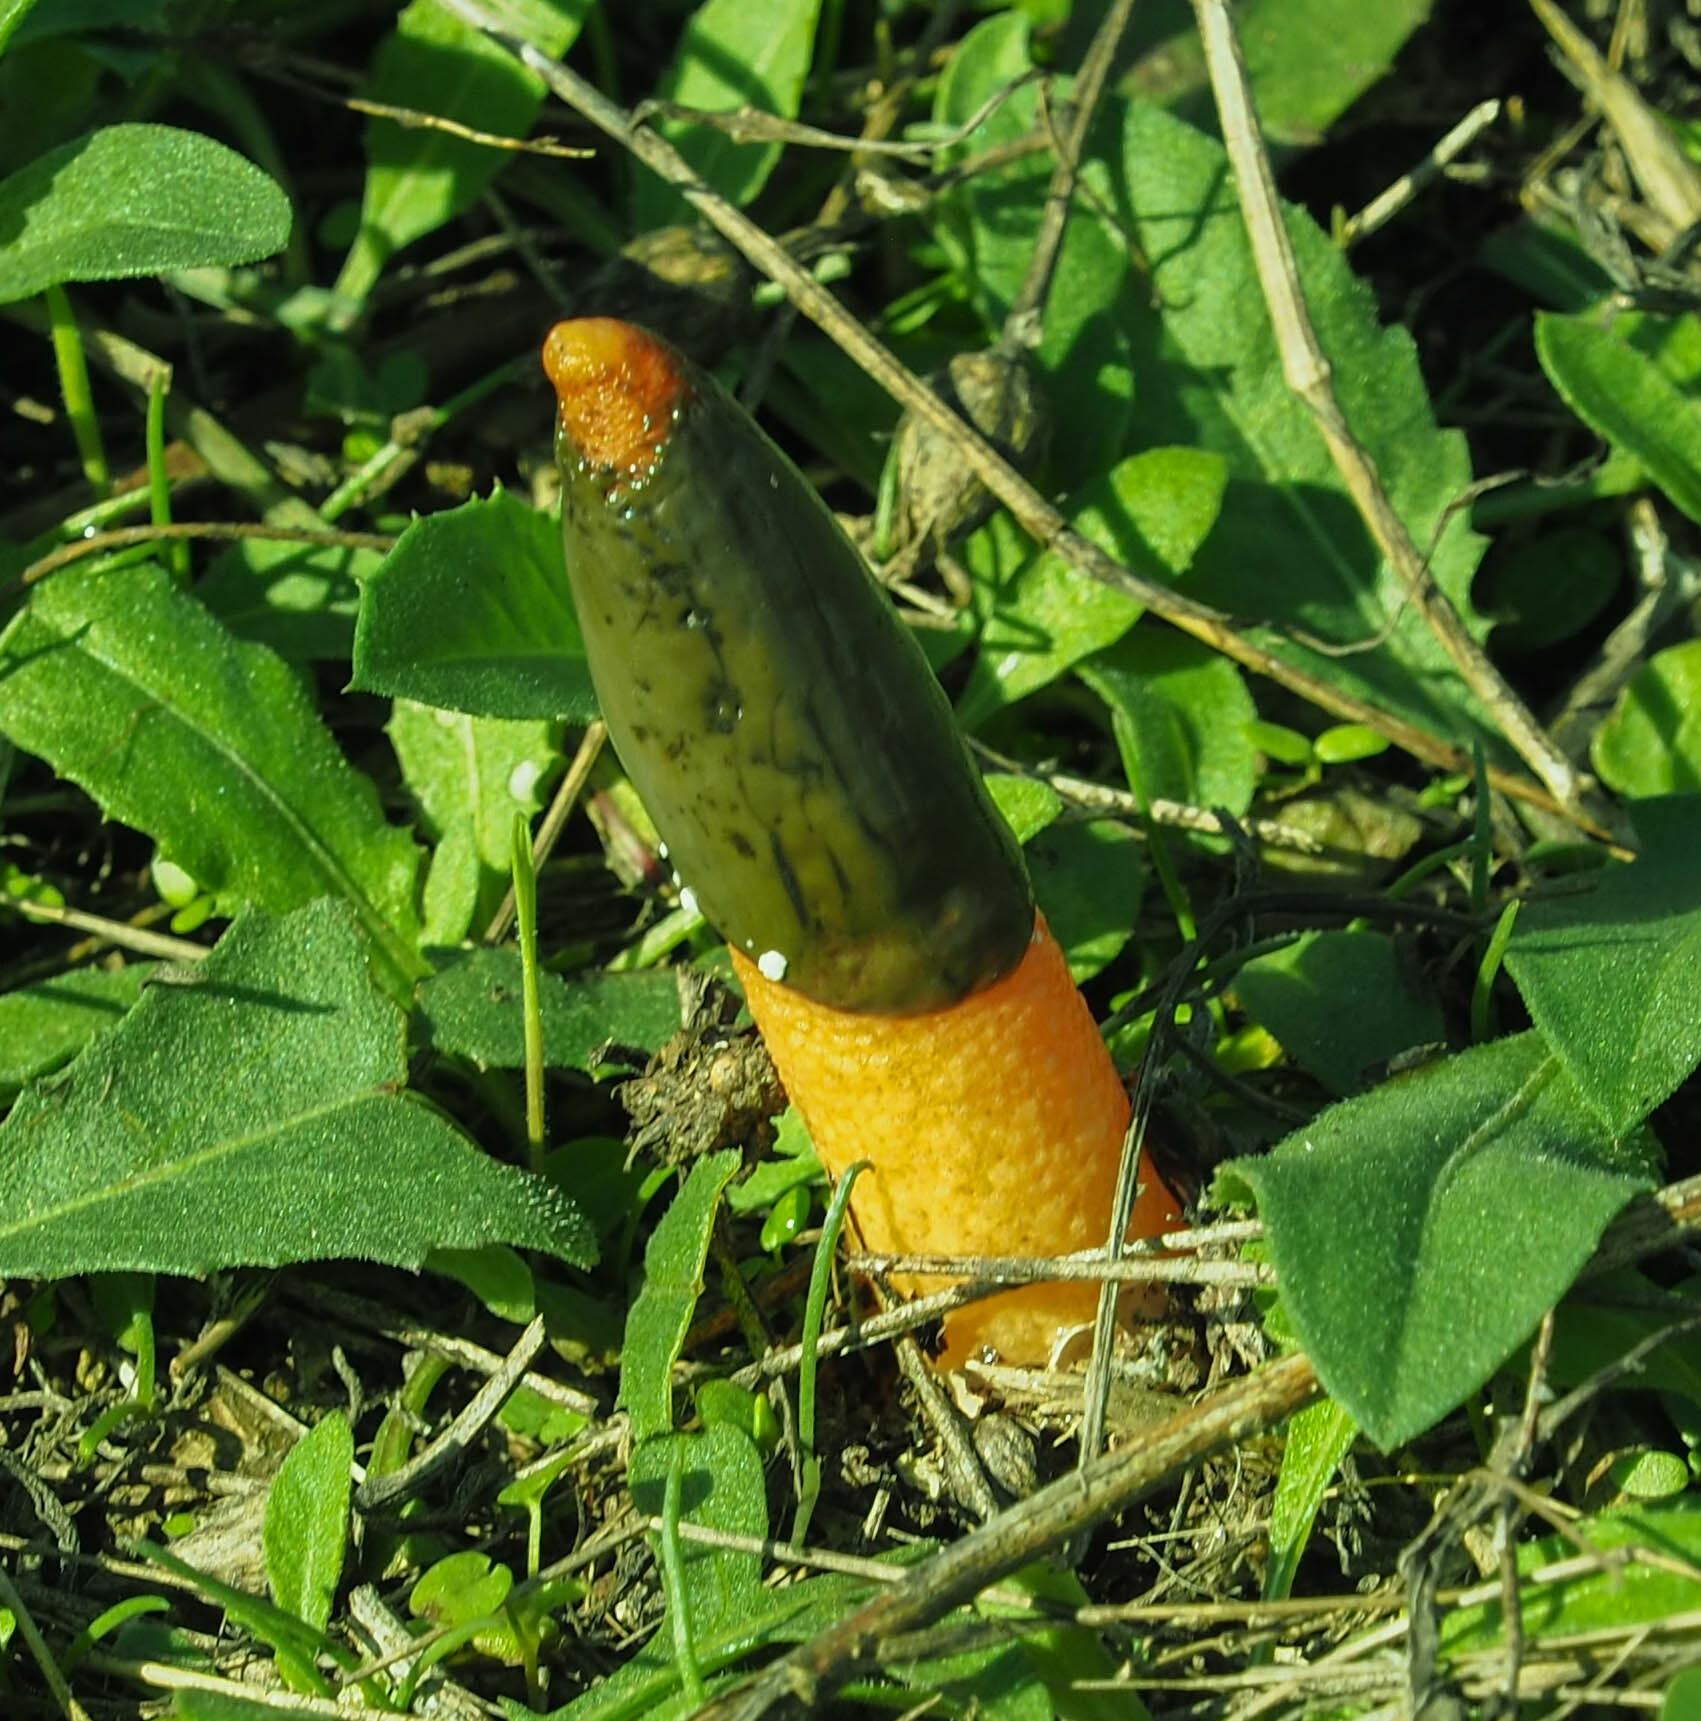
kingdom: Fungi
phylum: Basidiomycota
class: Agaricomycetes
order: Phallales
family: Phallaceae
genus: Mutinus
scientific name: Mutinus elegans
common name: Devil's dipstick
